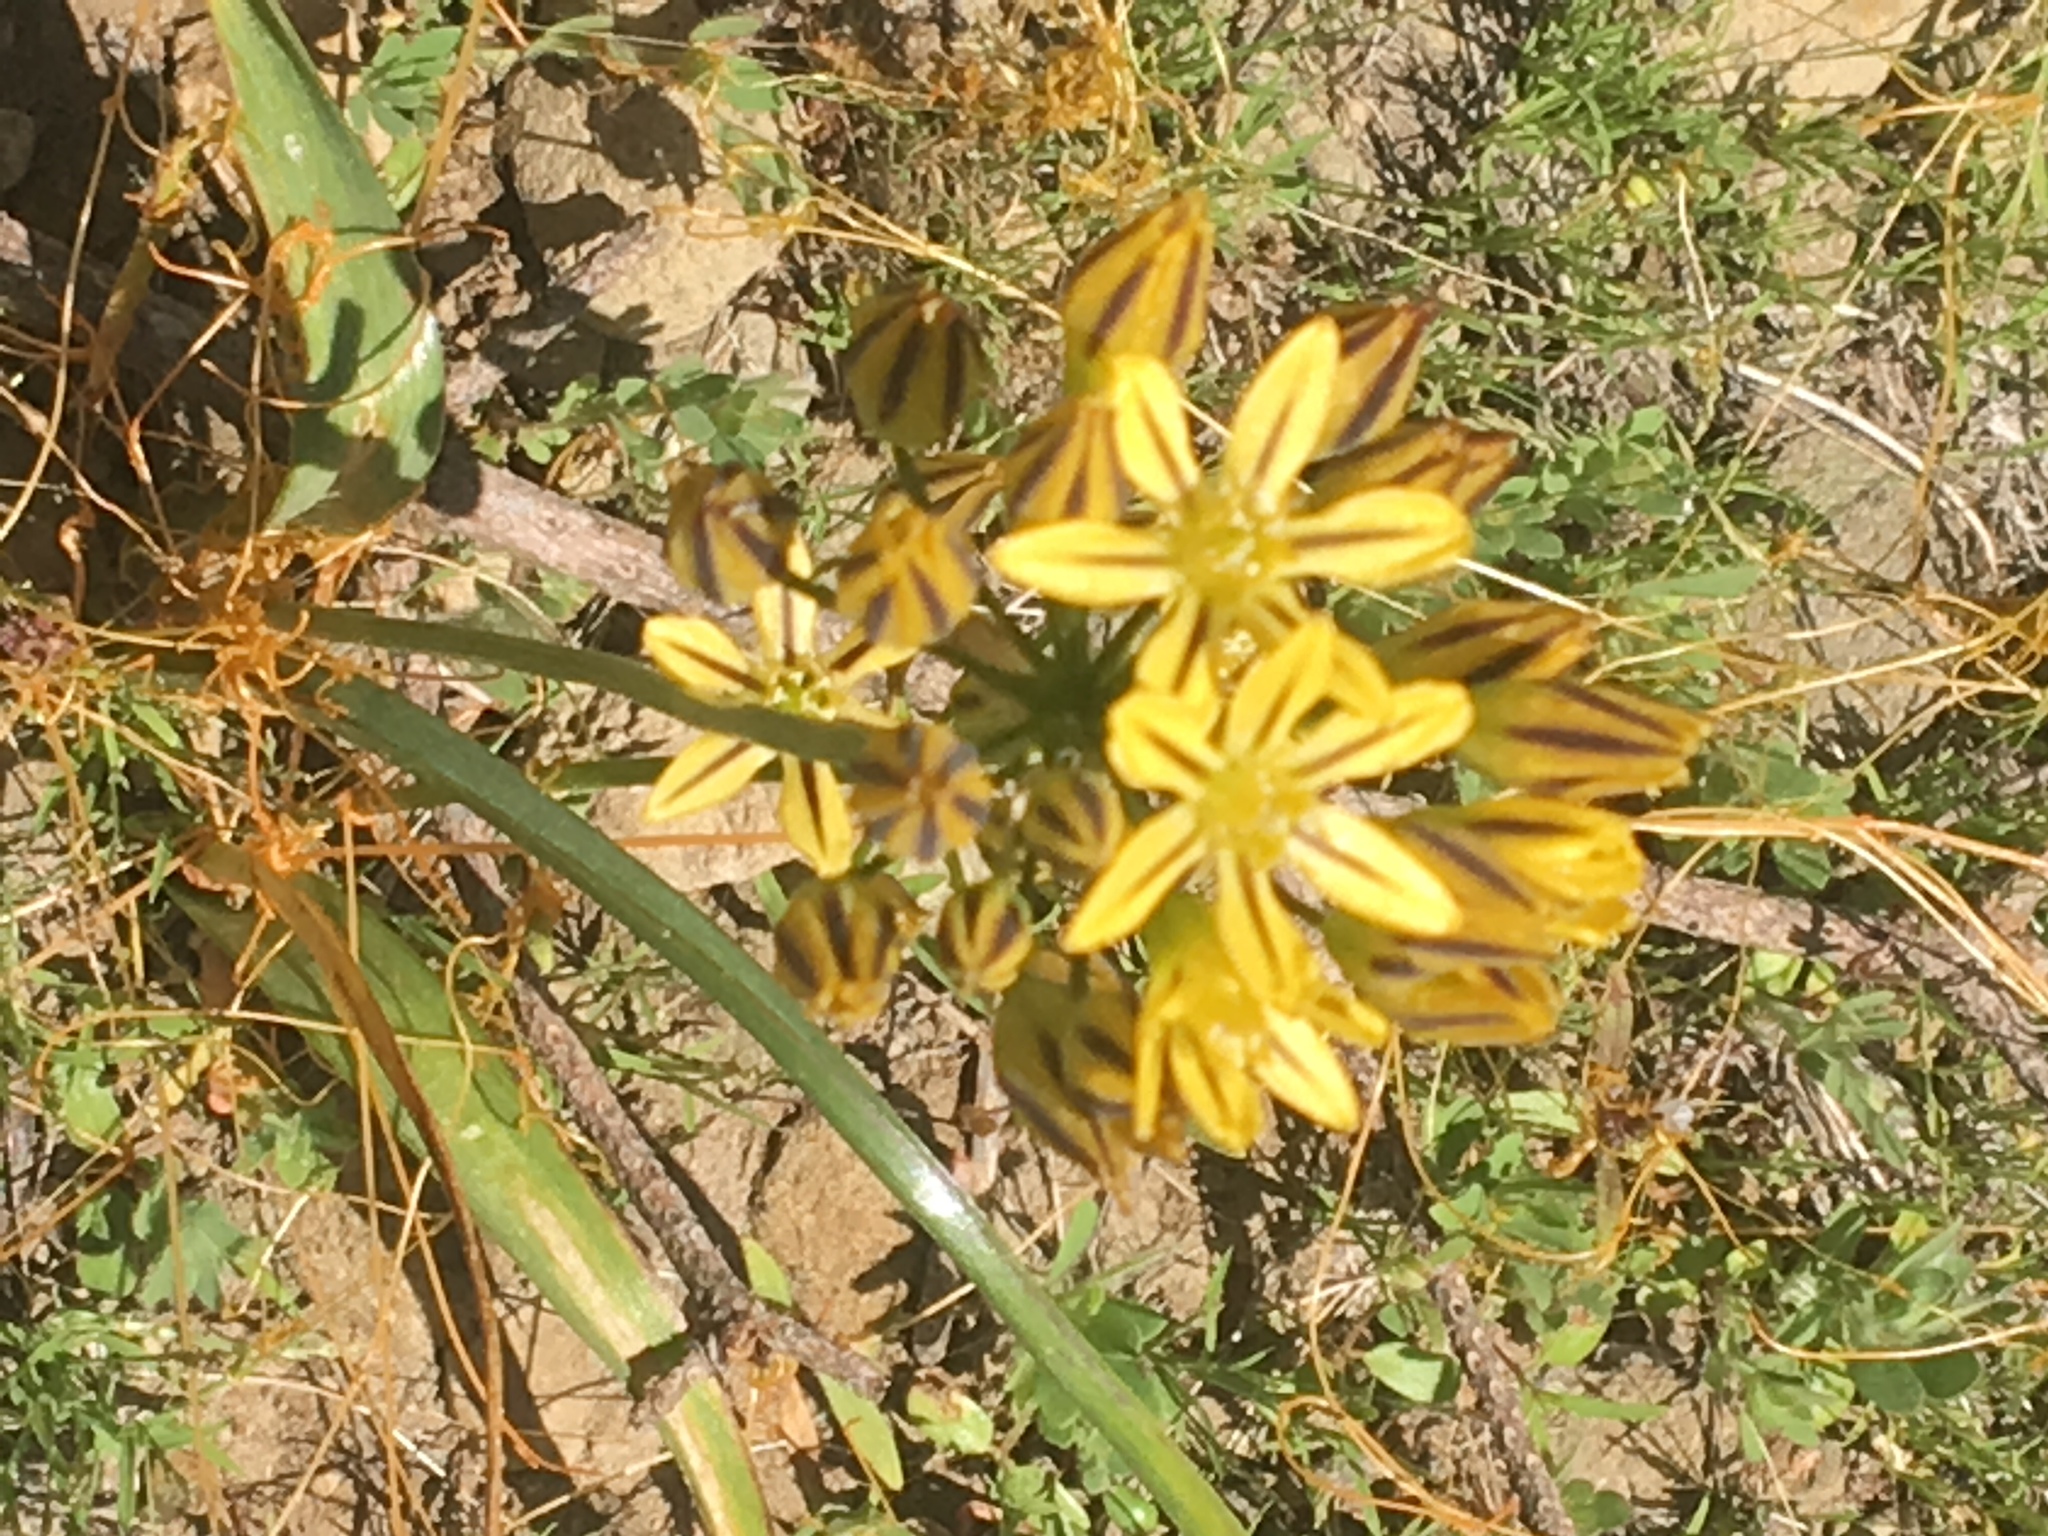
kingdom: Plantae
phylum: Tracheophyta
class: Liliopsida
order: Asparagales
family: Asparagaceae
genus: Triteleia
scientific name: Triteleia ixioides
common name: Yellow-brodiaea
